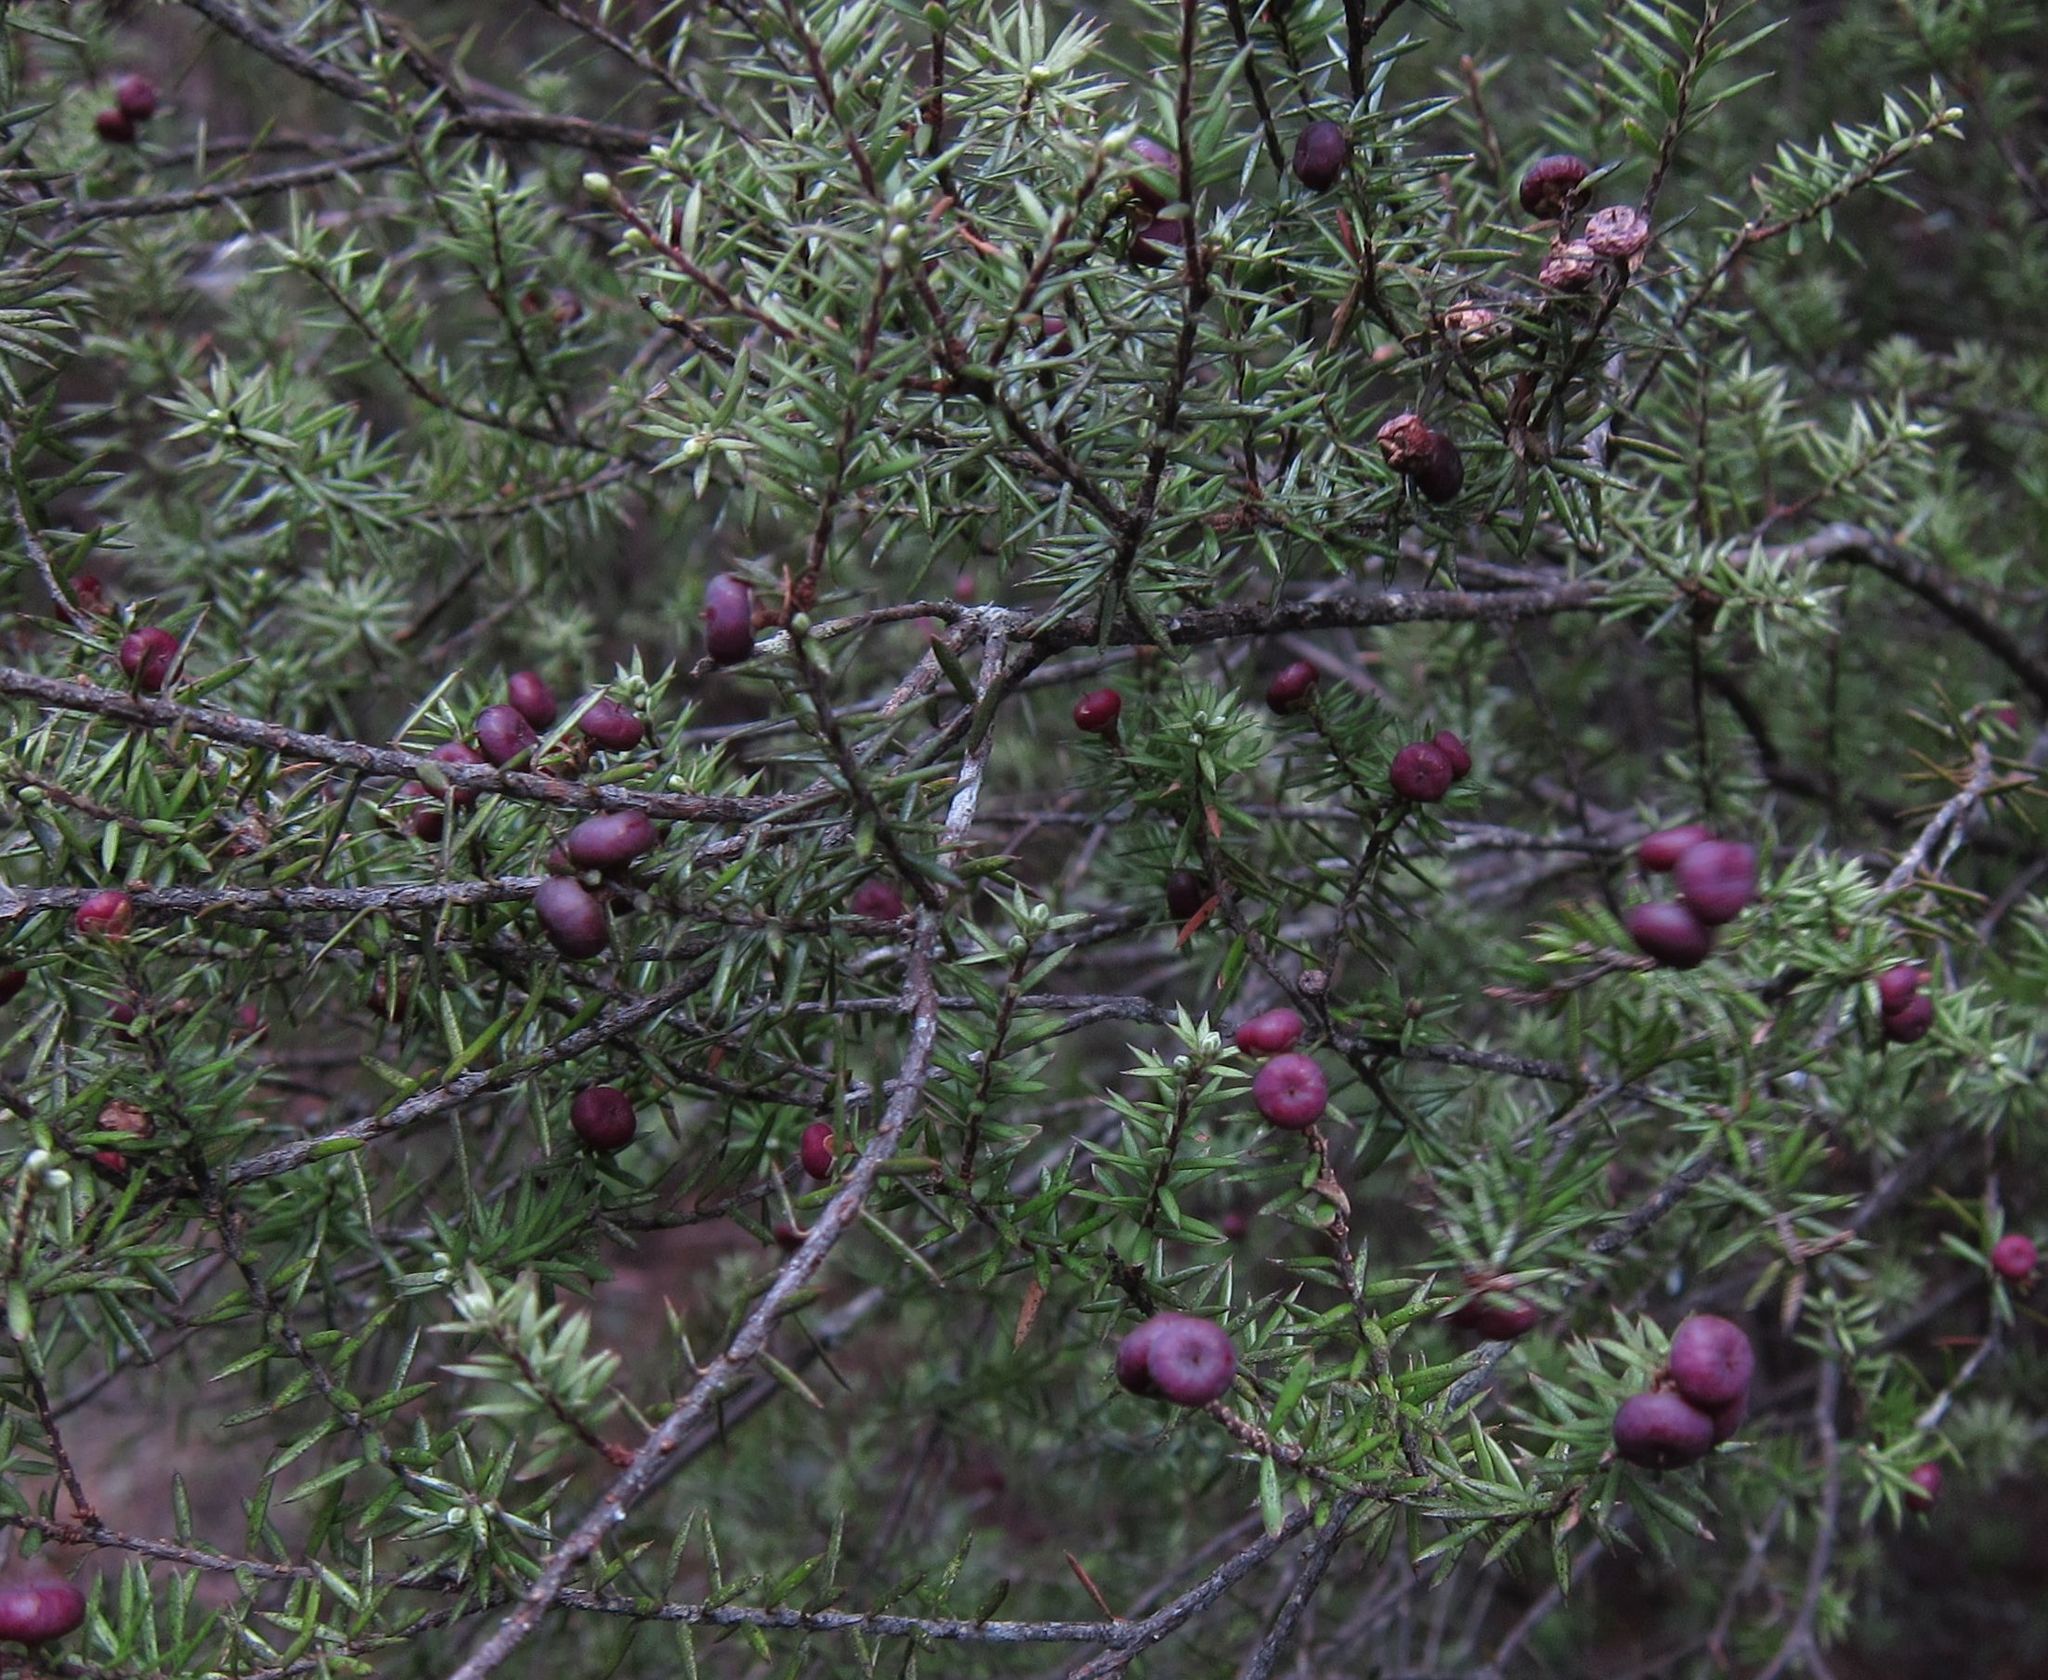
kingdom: Plantae
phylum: Tracheophyta
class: Magnoliopsida
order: Ericales
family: Ericaceae
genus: Leptecophylla
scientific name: Leptecophylla juniperina
